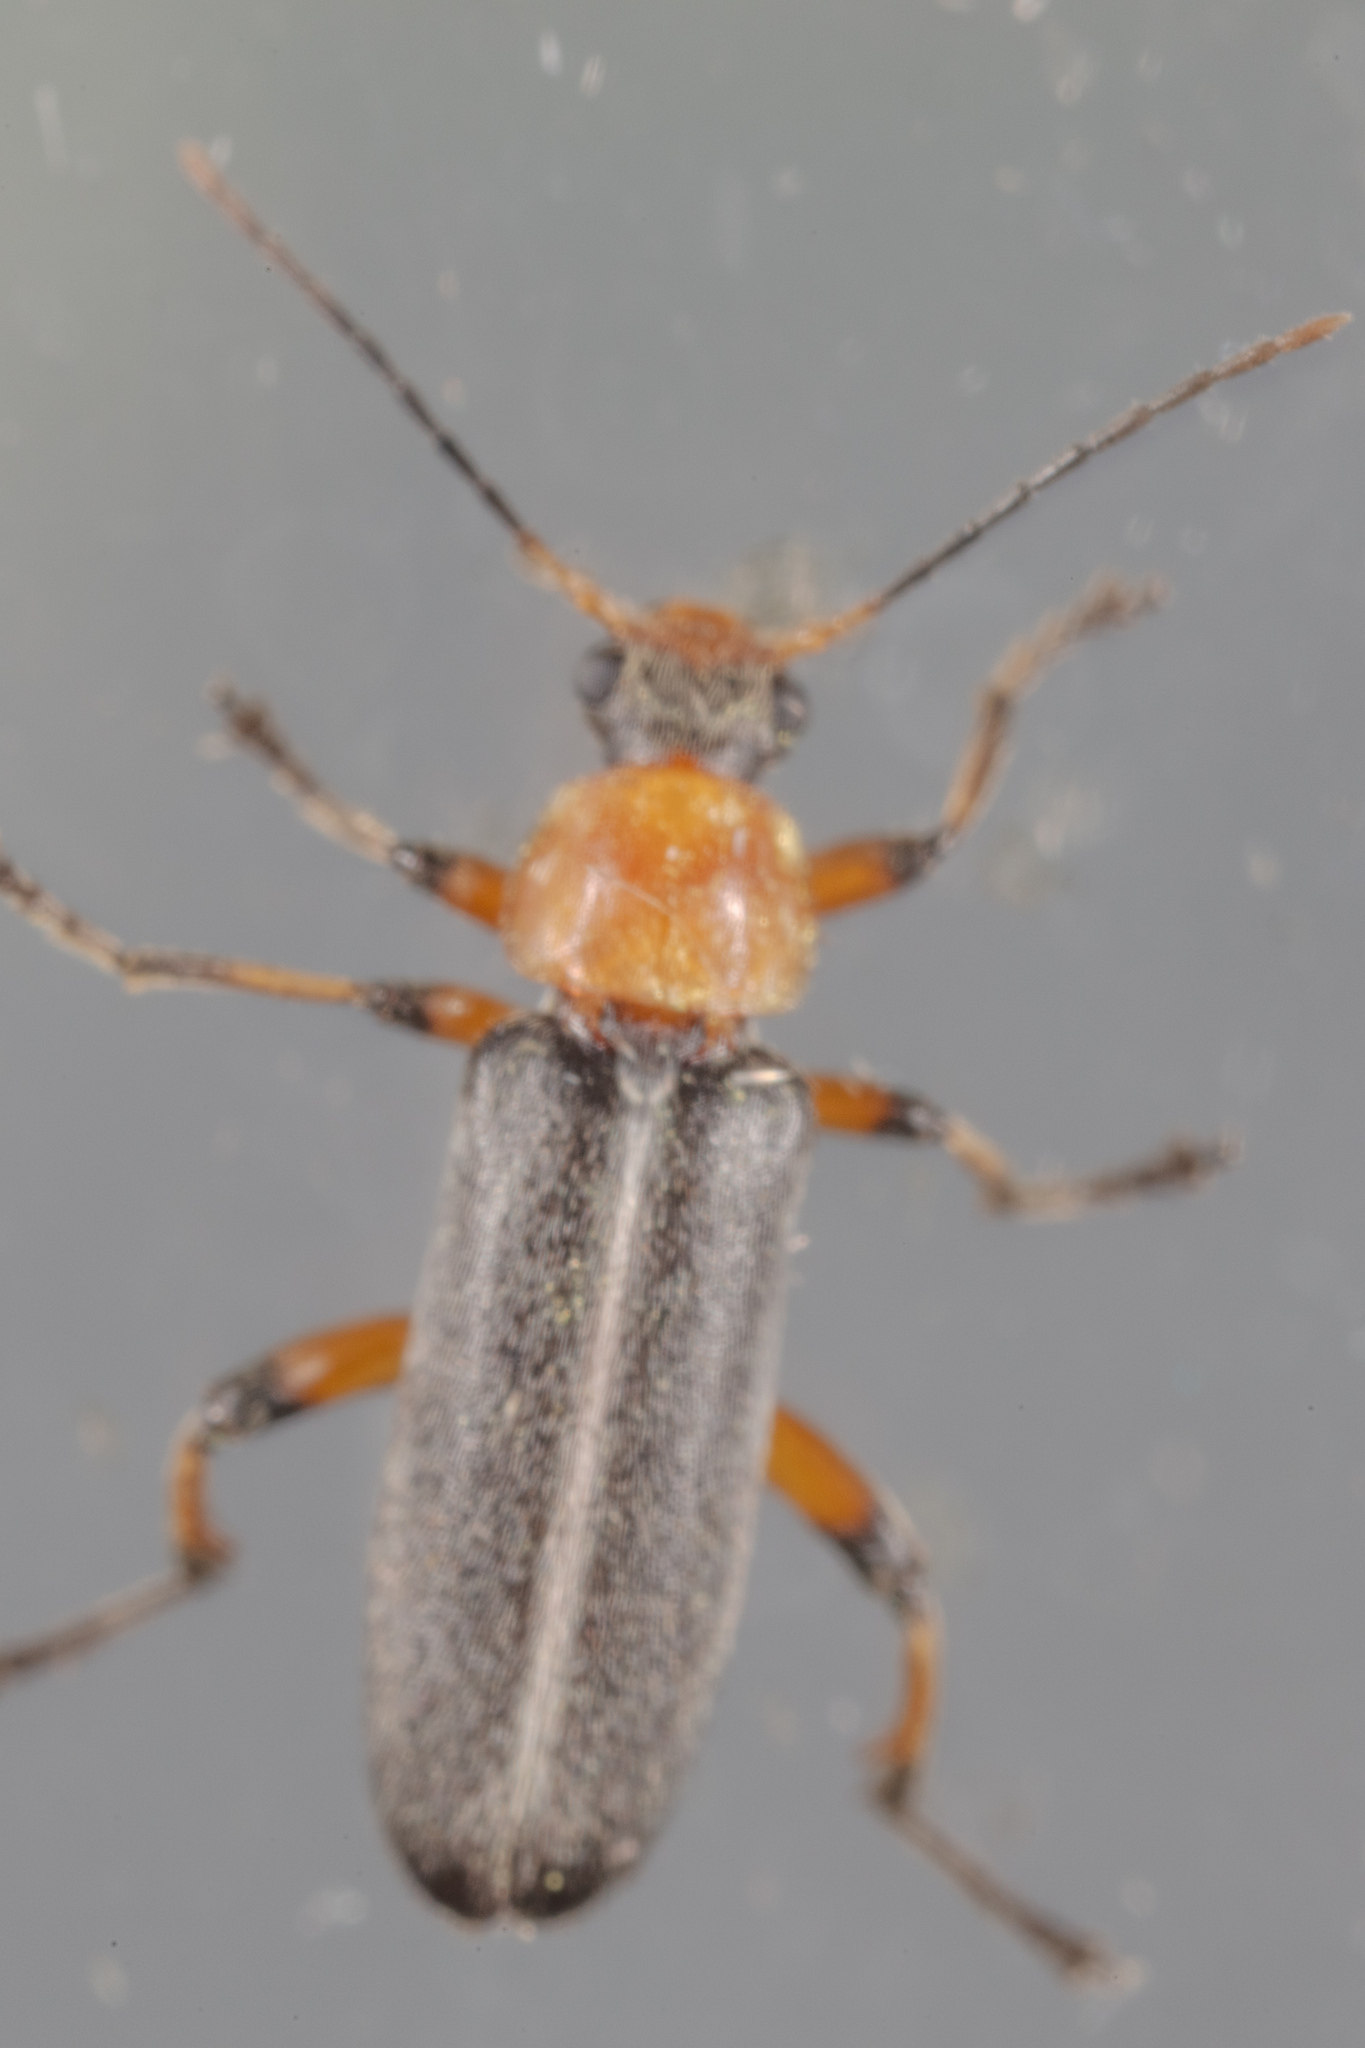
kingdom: Animalia
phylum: Arthropoda
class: Insecta
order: Coleoptera
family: Melandryidae
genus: Osphya
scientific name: Osphya varians
